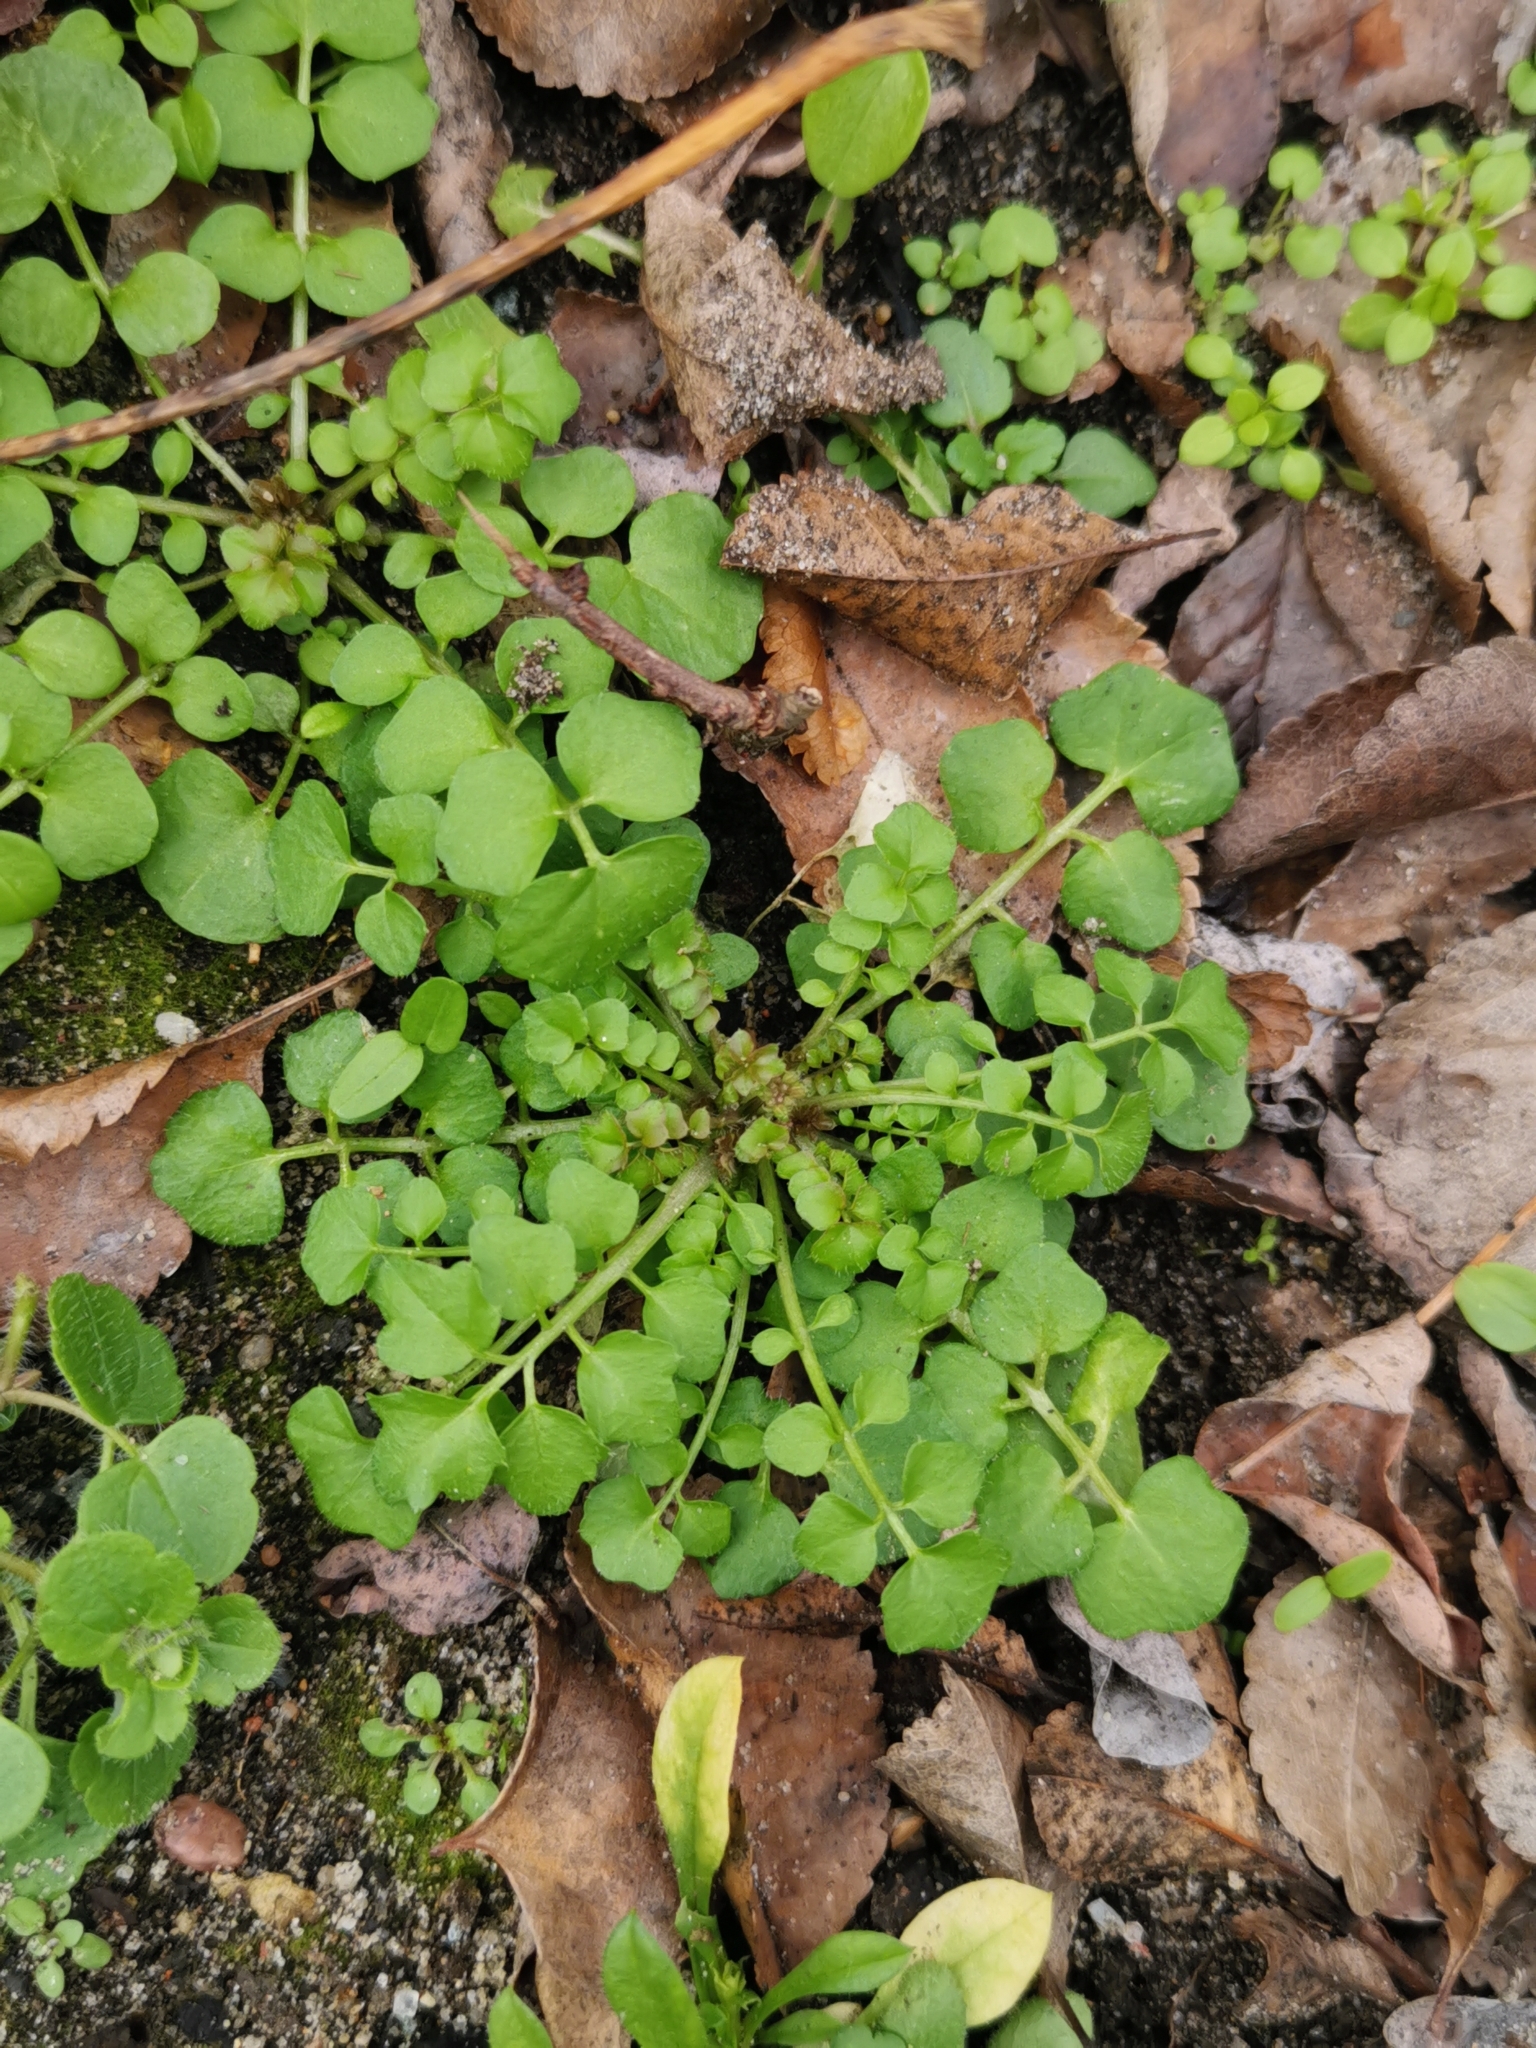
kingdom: Plantae
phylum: Tracheophyta
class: Magnoliopsida
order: Brassicales
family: Brassicaceae
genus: Cardamine
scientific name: Cardamine hirsuta
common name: Hairy bittercress
